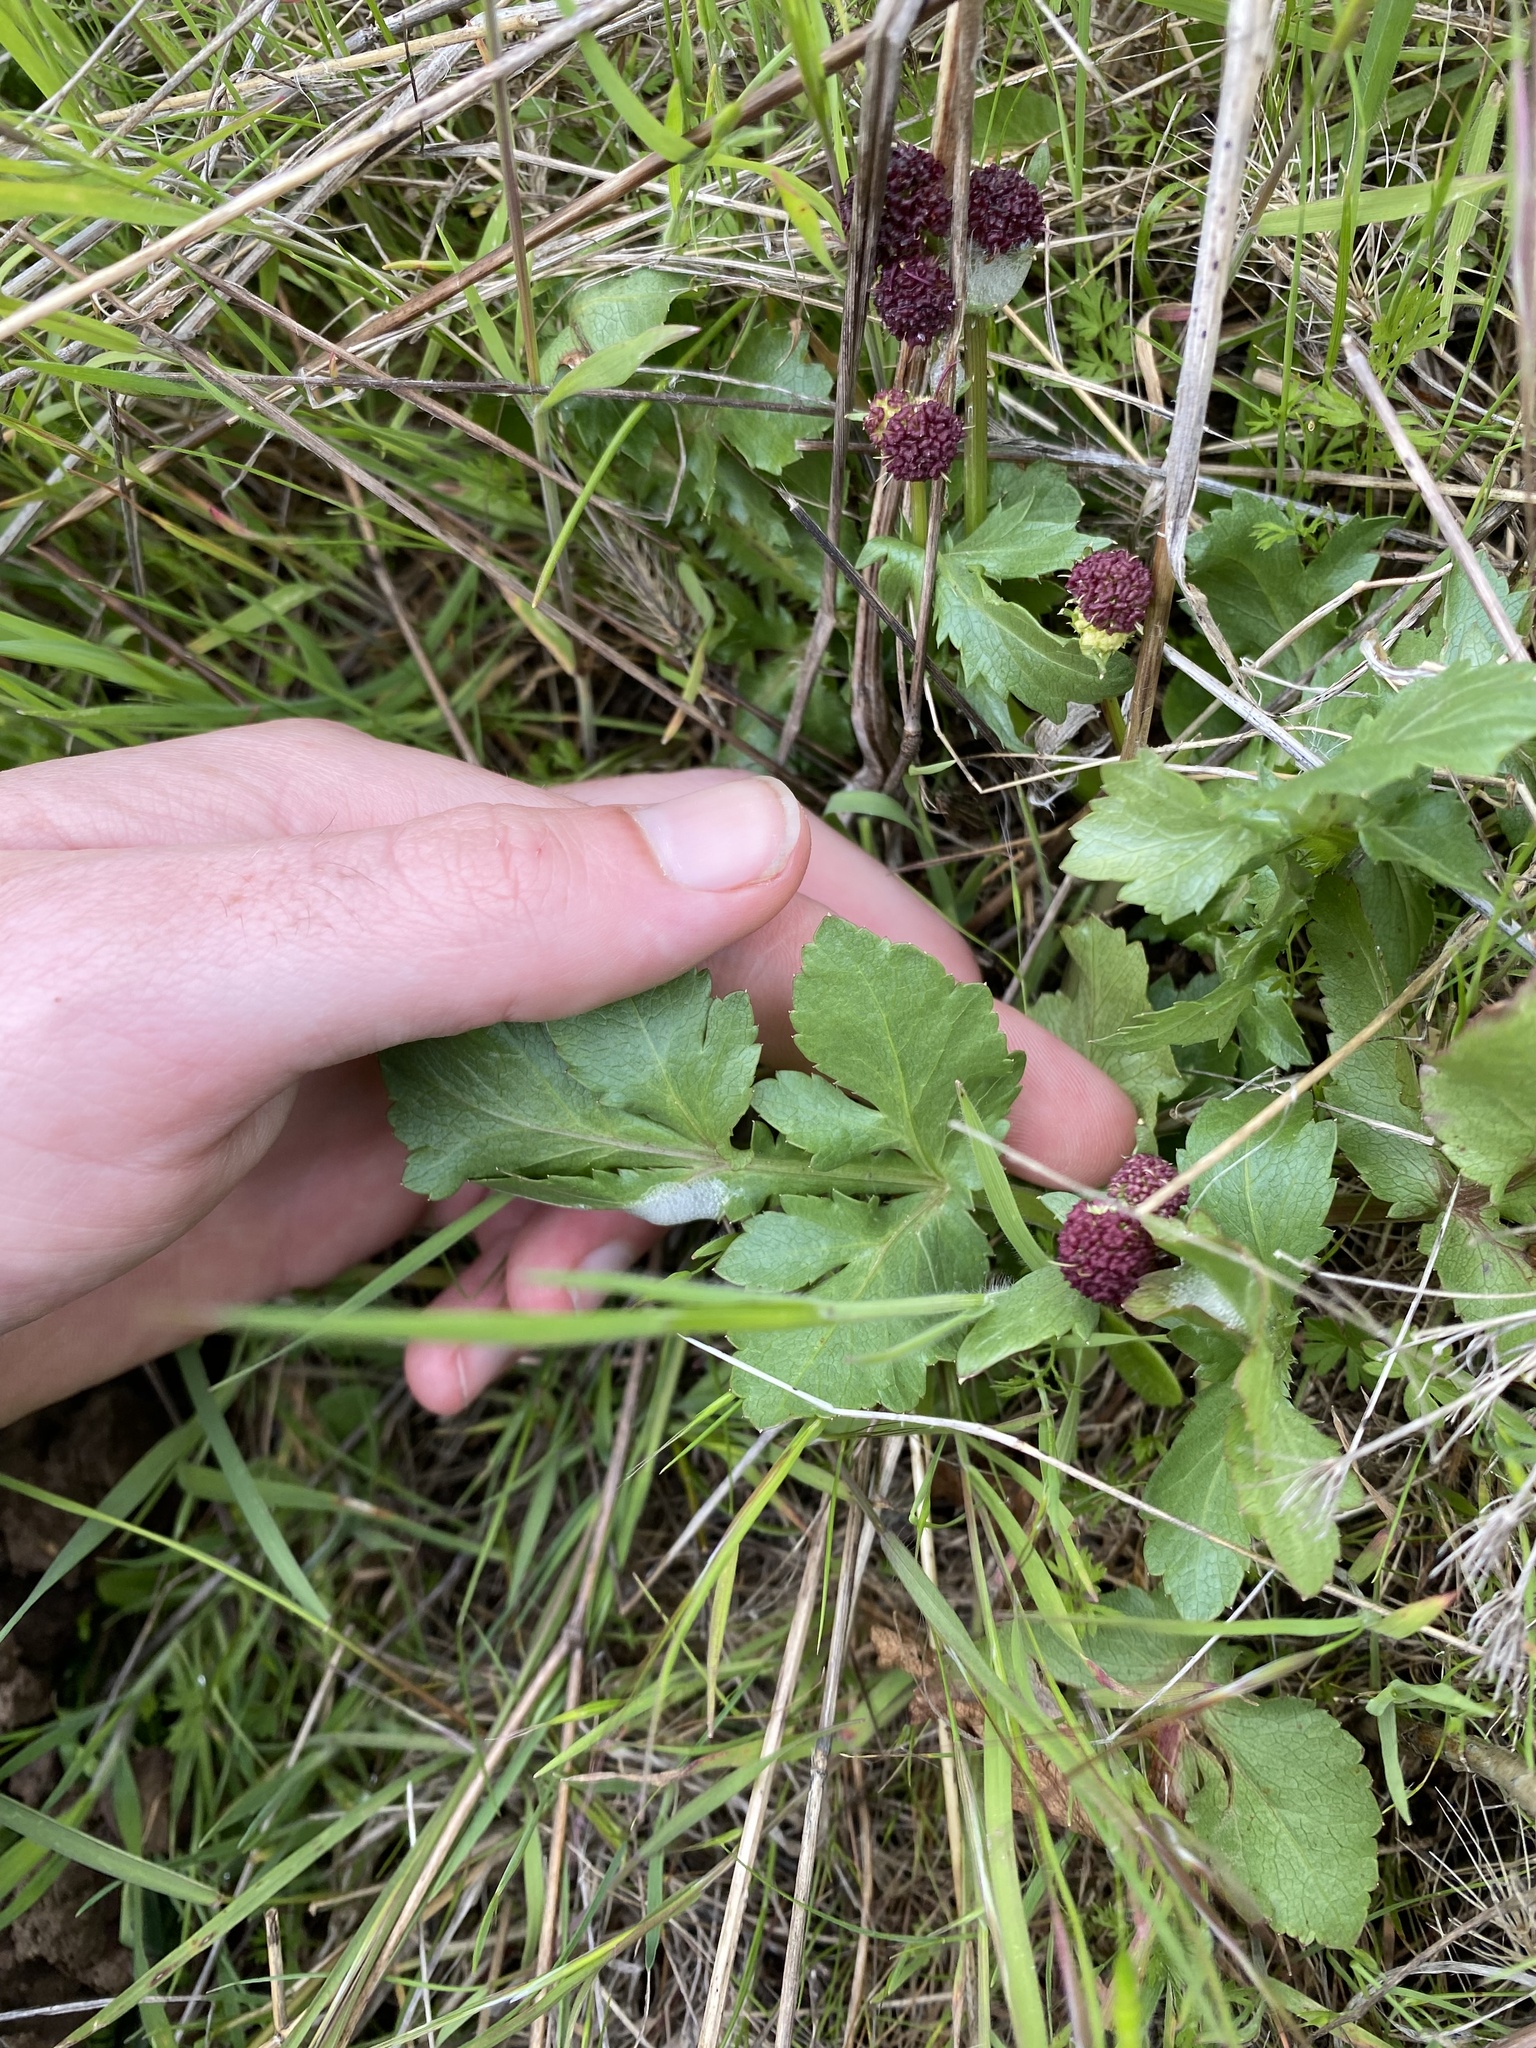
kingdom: Plantae
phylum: Tracheophyta
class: Magnoliopsida
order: Apiales
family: Apiaceae
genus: Sanicula
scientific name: Sanicula bipinnatifida
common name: Shoe-buttons
